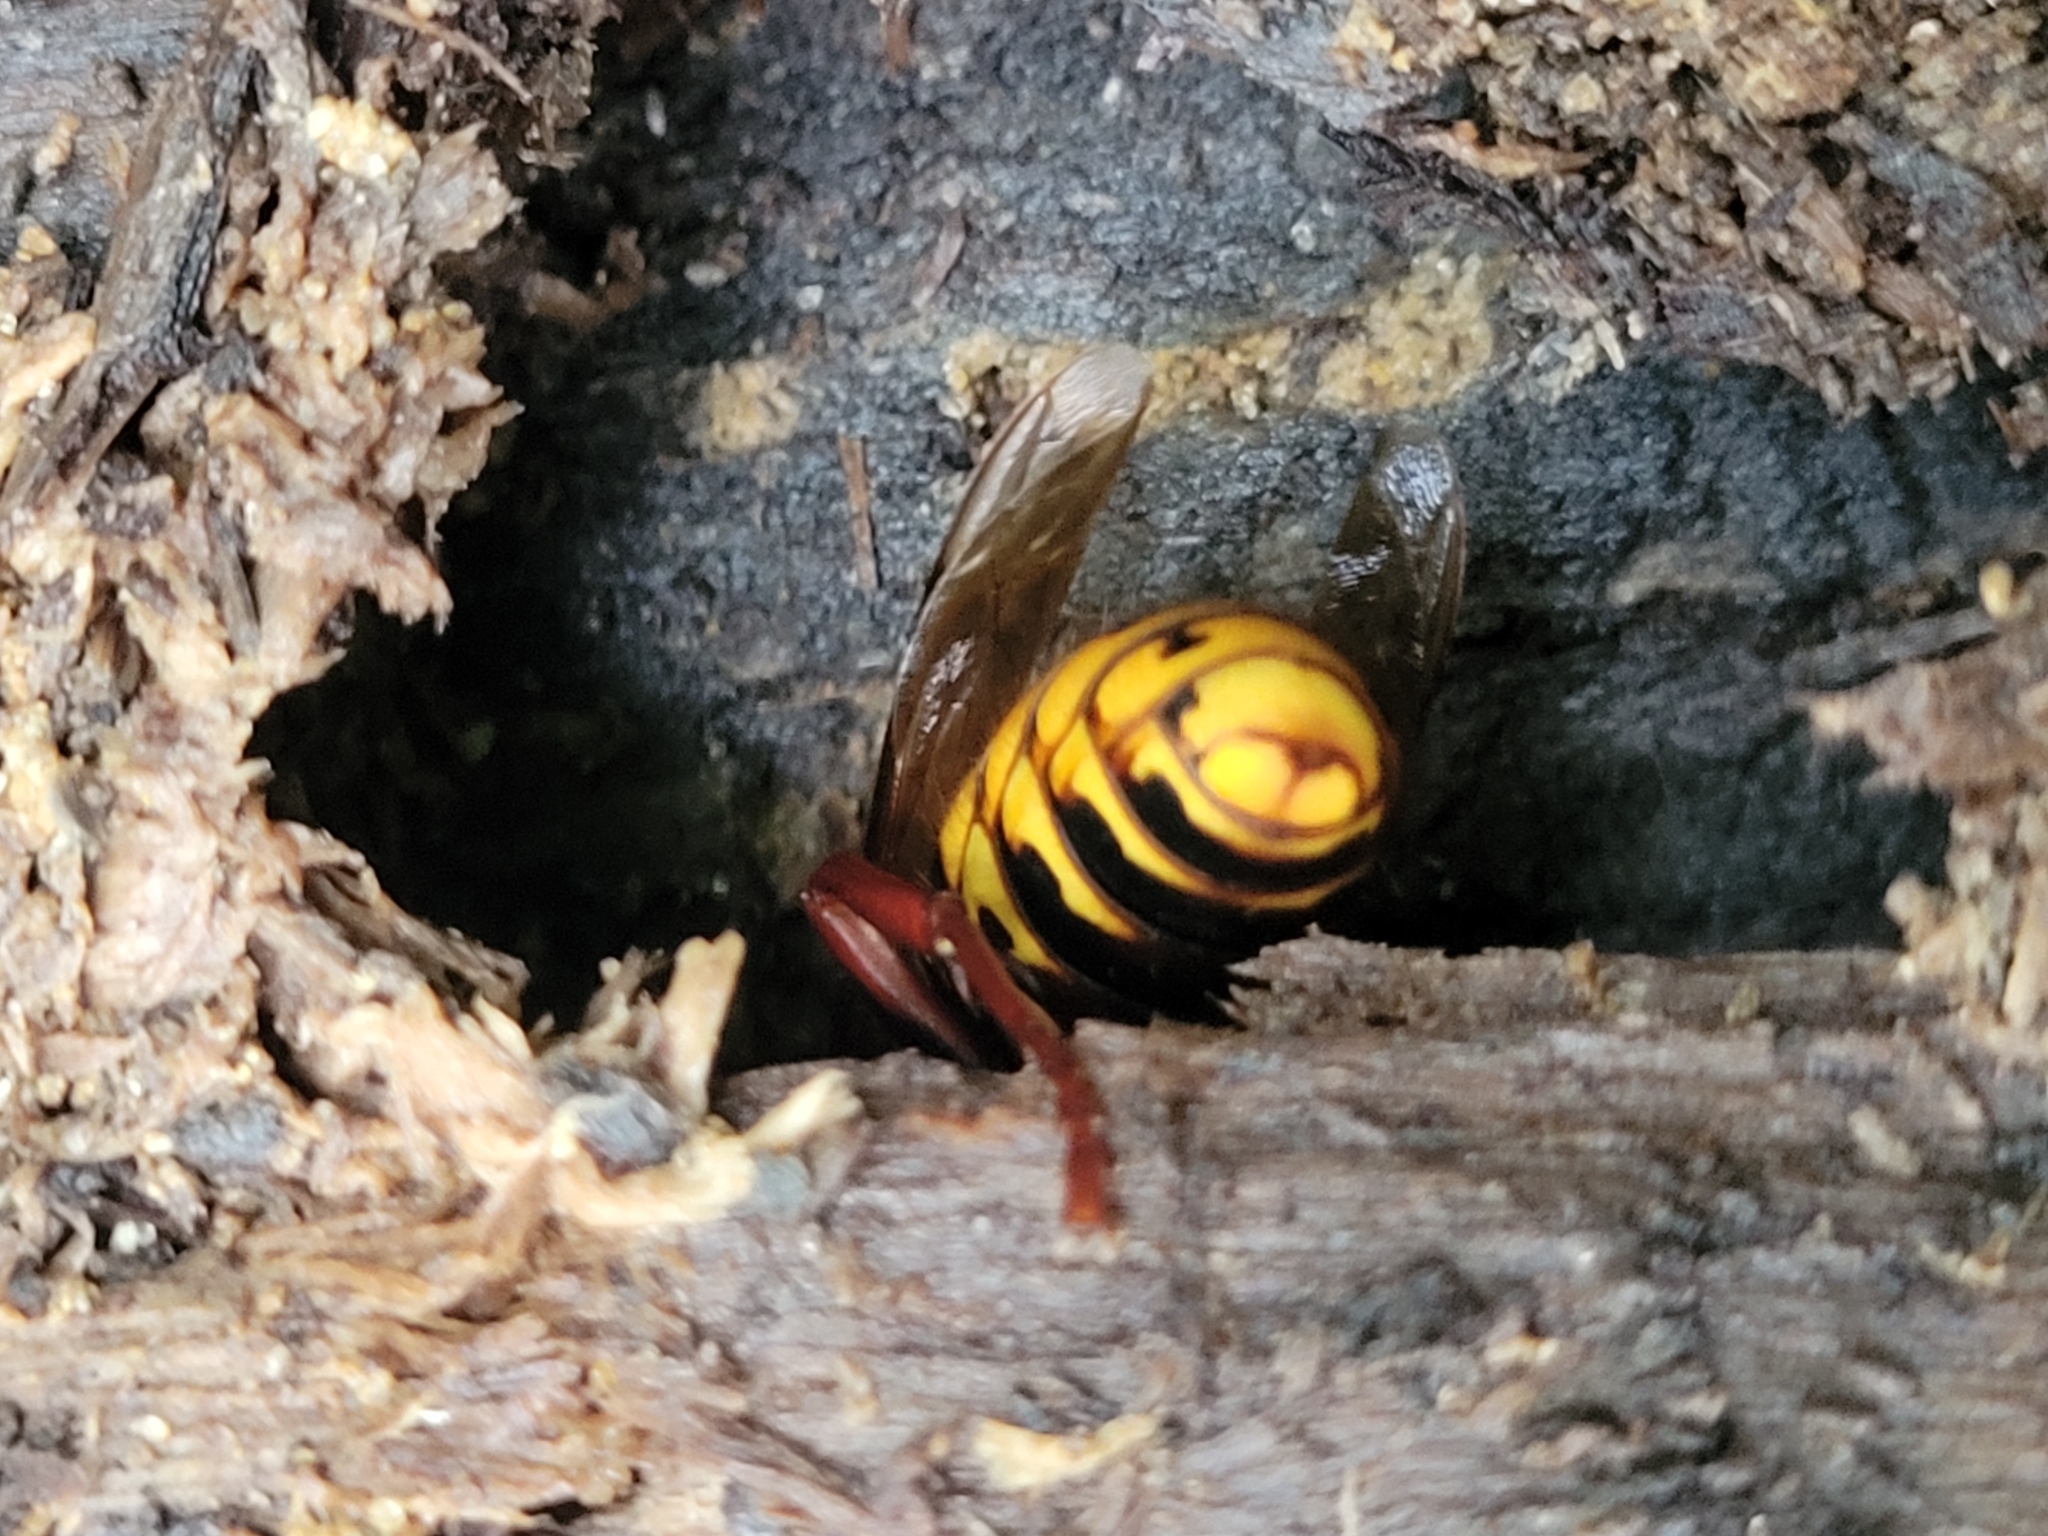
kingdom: Animalia
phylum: Arthropoda
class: Insecta
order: Hymenoptera
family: Vespidae
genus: Vespa
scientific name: Vespa crabro
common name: Hornet
